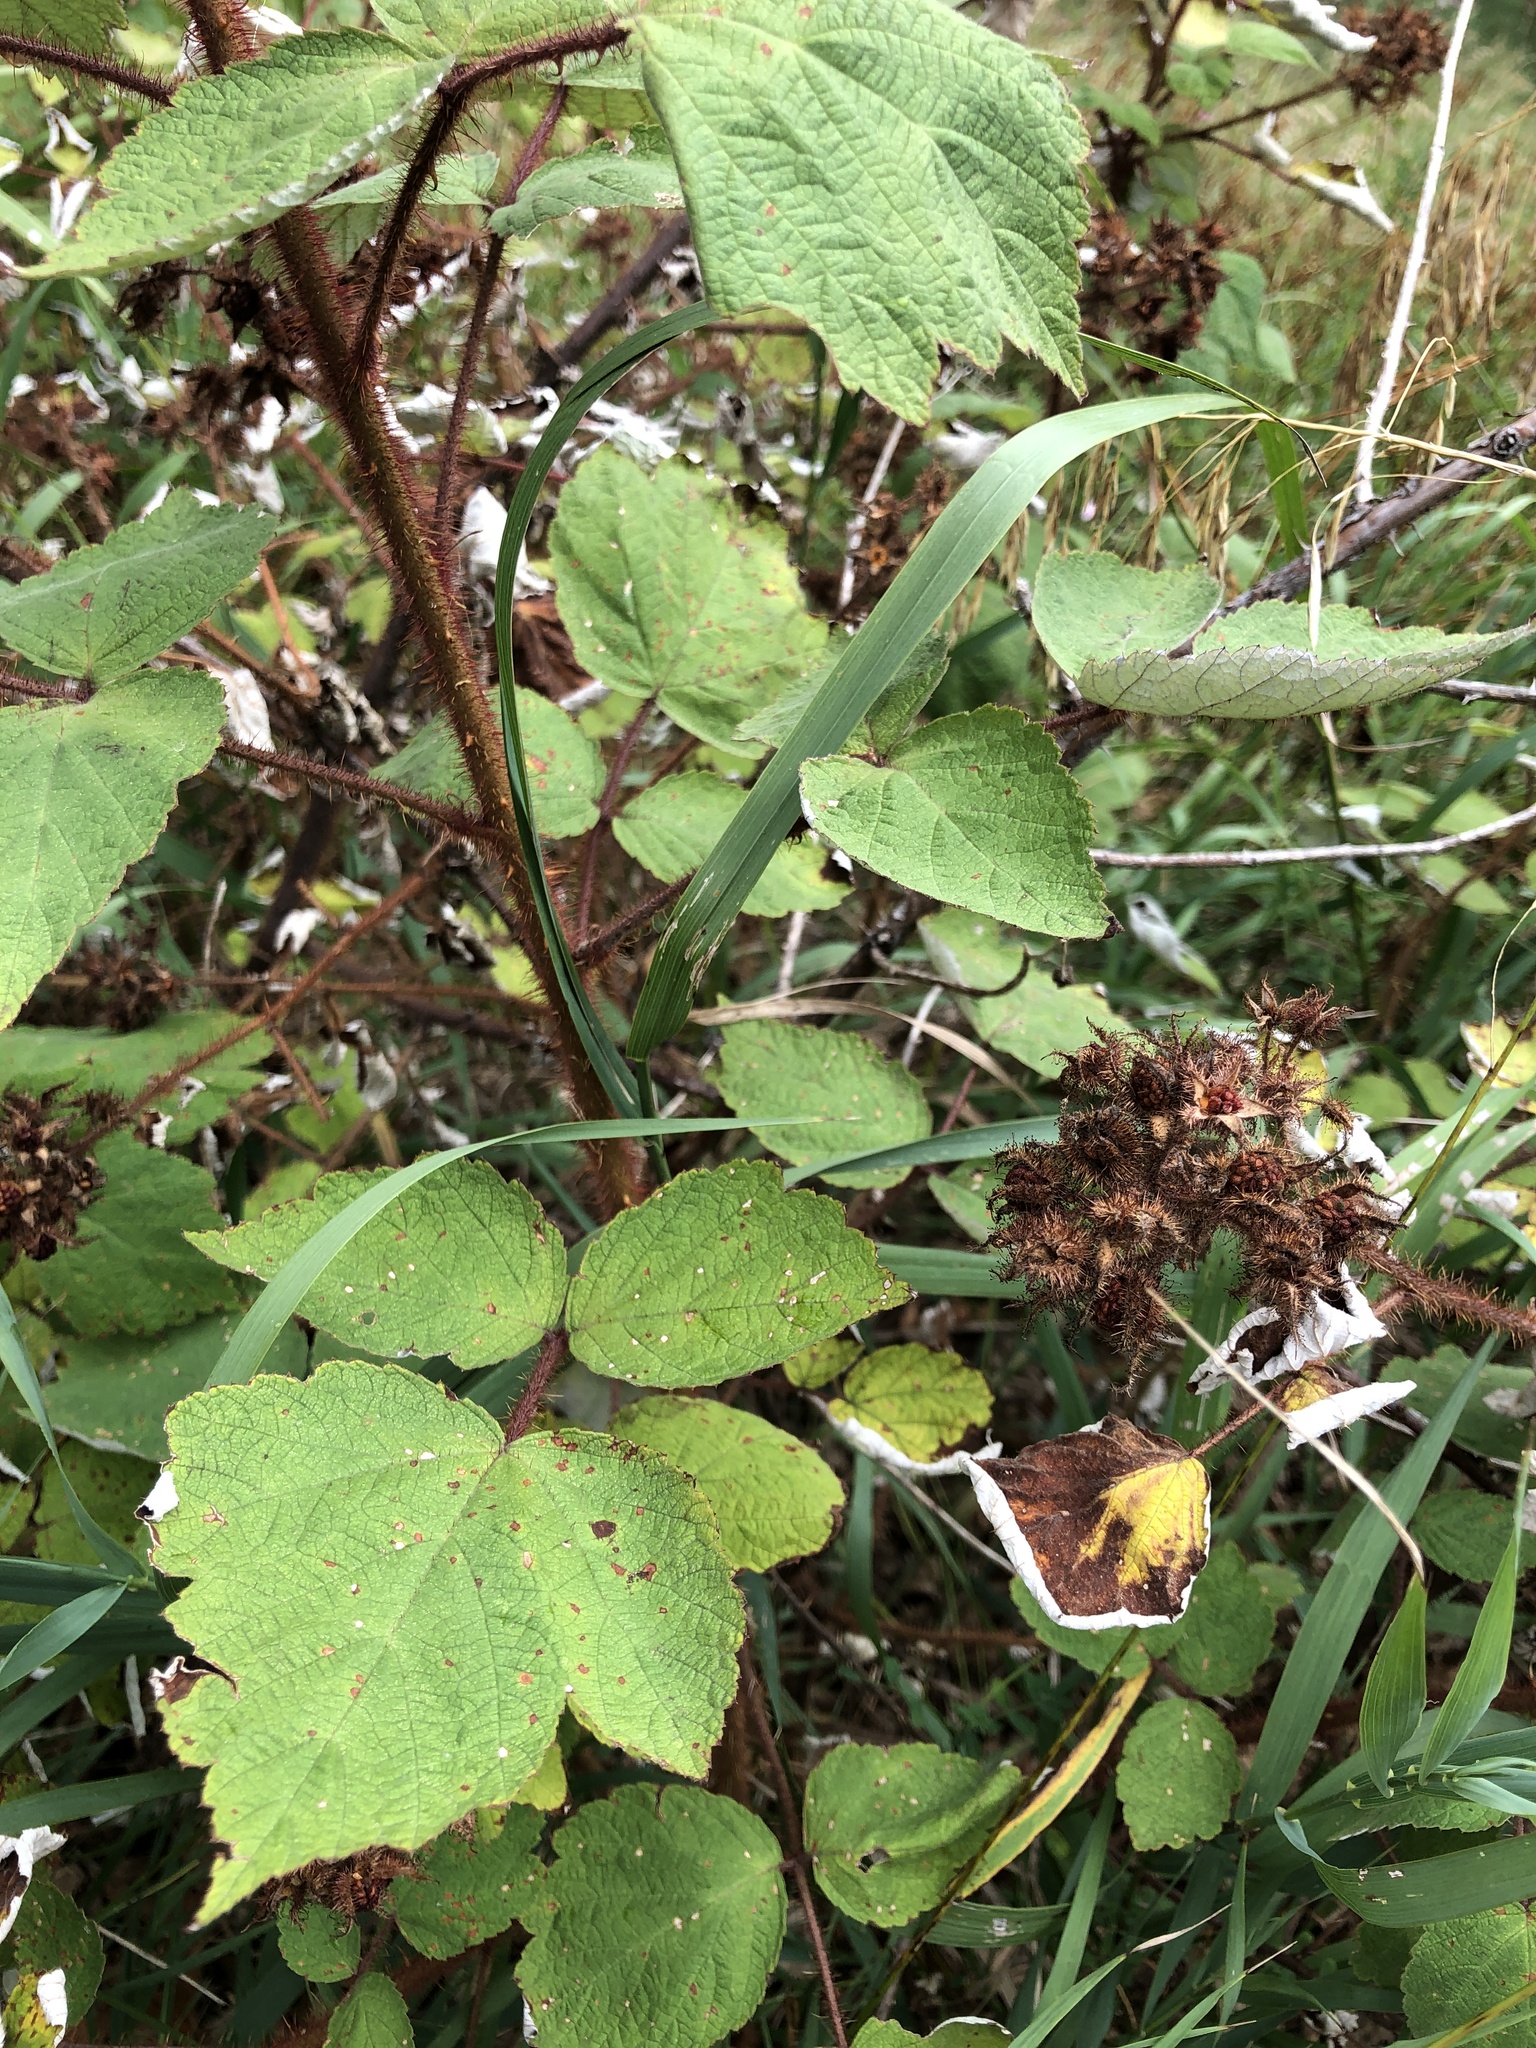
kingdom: Plantae
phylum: Tracheophyta
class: Magnoliopsida
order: Rosales
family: Rosaceae
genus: Rubus
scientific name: Rubus phoenicolasius
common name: Japanese wineberry
